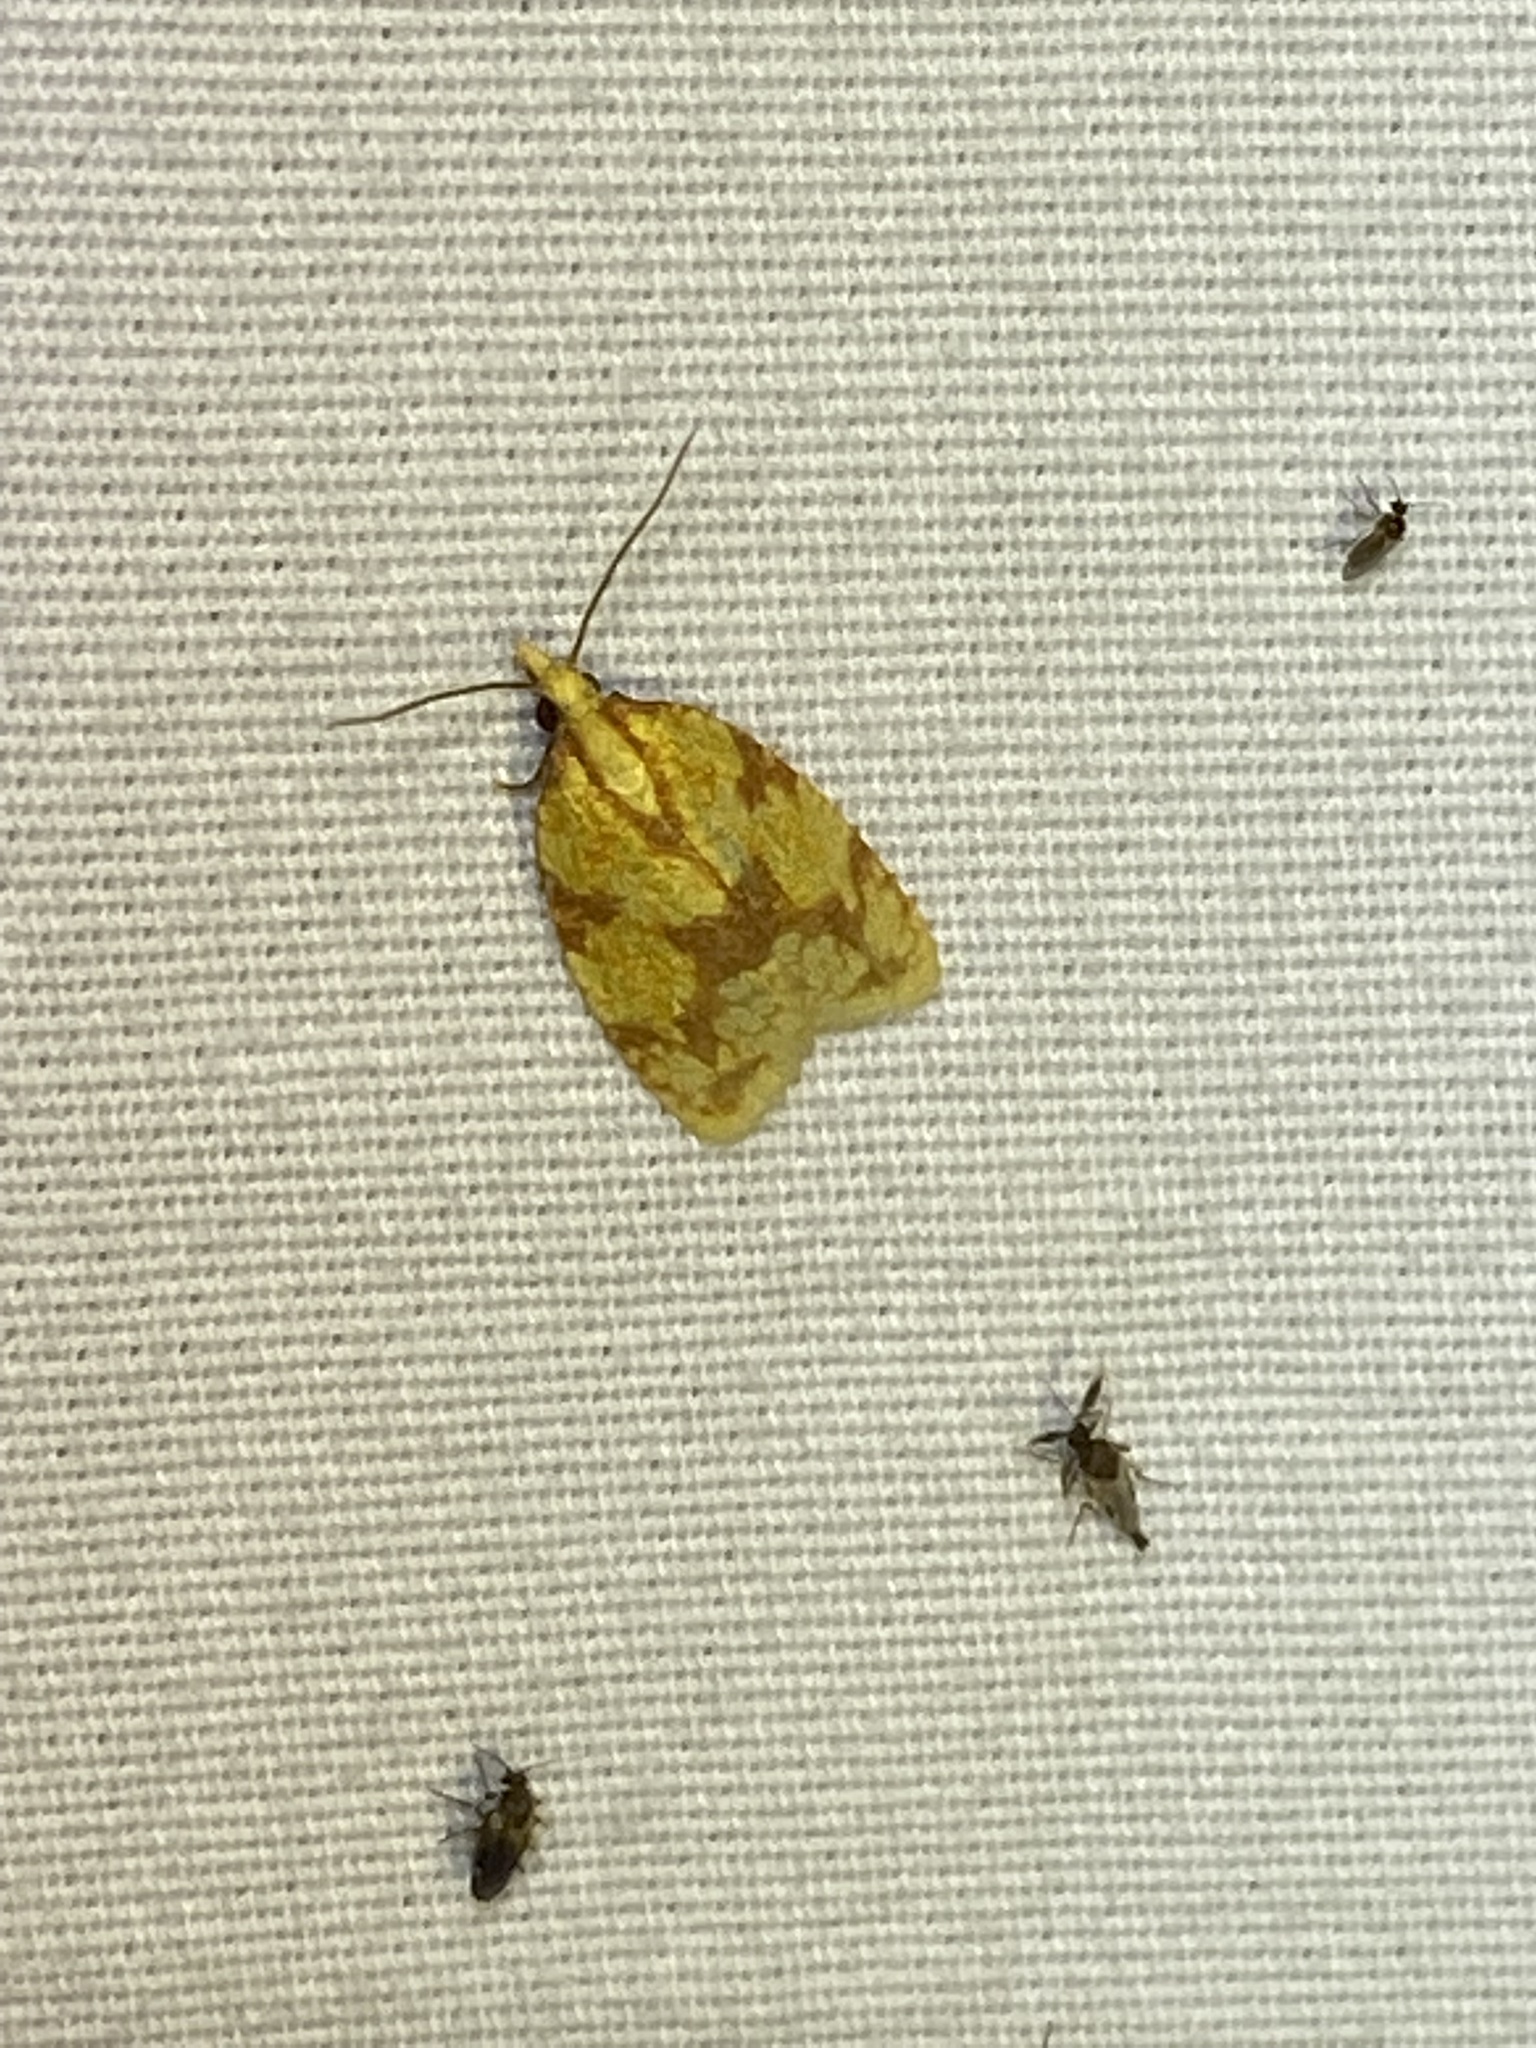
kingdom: Animalia
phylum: Arthropoda
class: Insecta
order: Lepidoptera
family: Tortricidae
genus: Sparganothis
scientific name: Sparganothis sulfureana
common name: Sparganothis fruitworm moth
